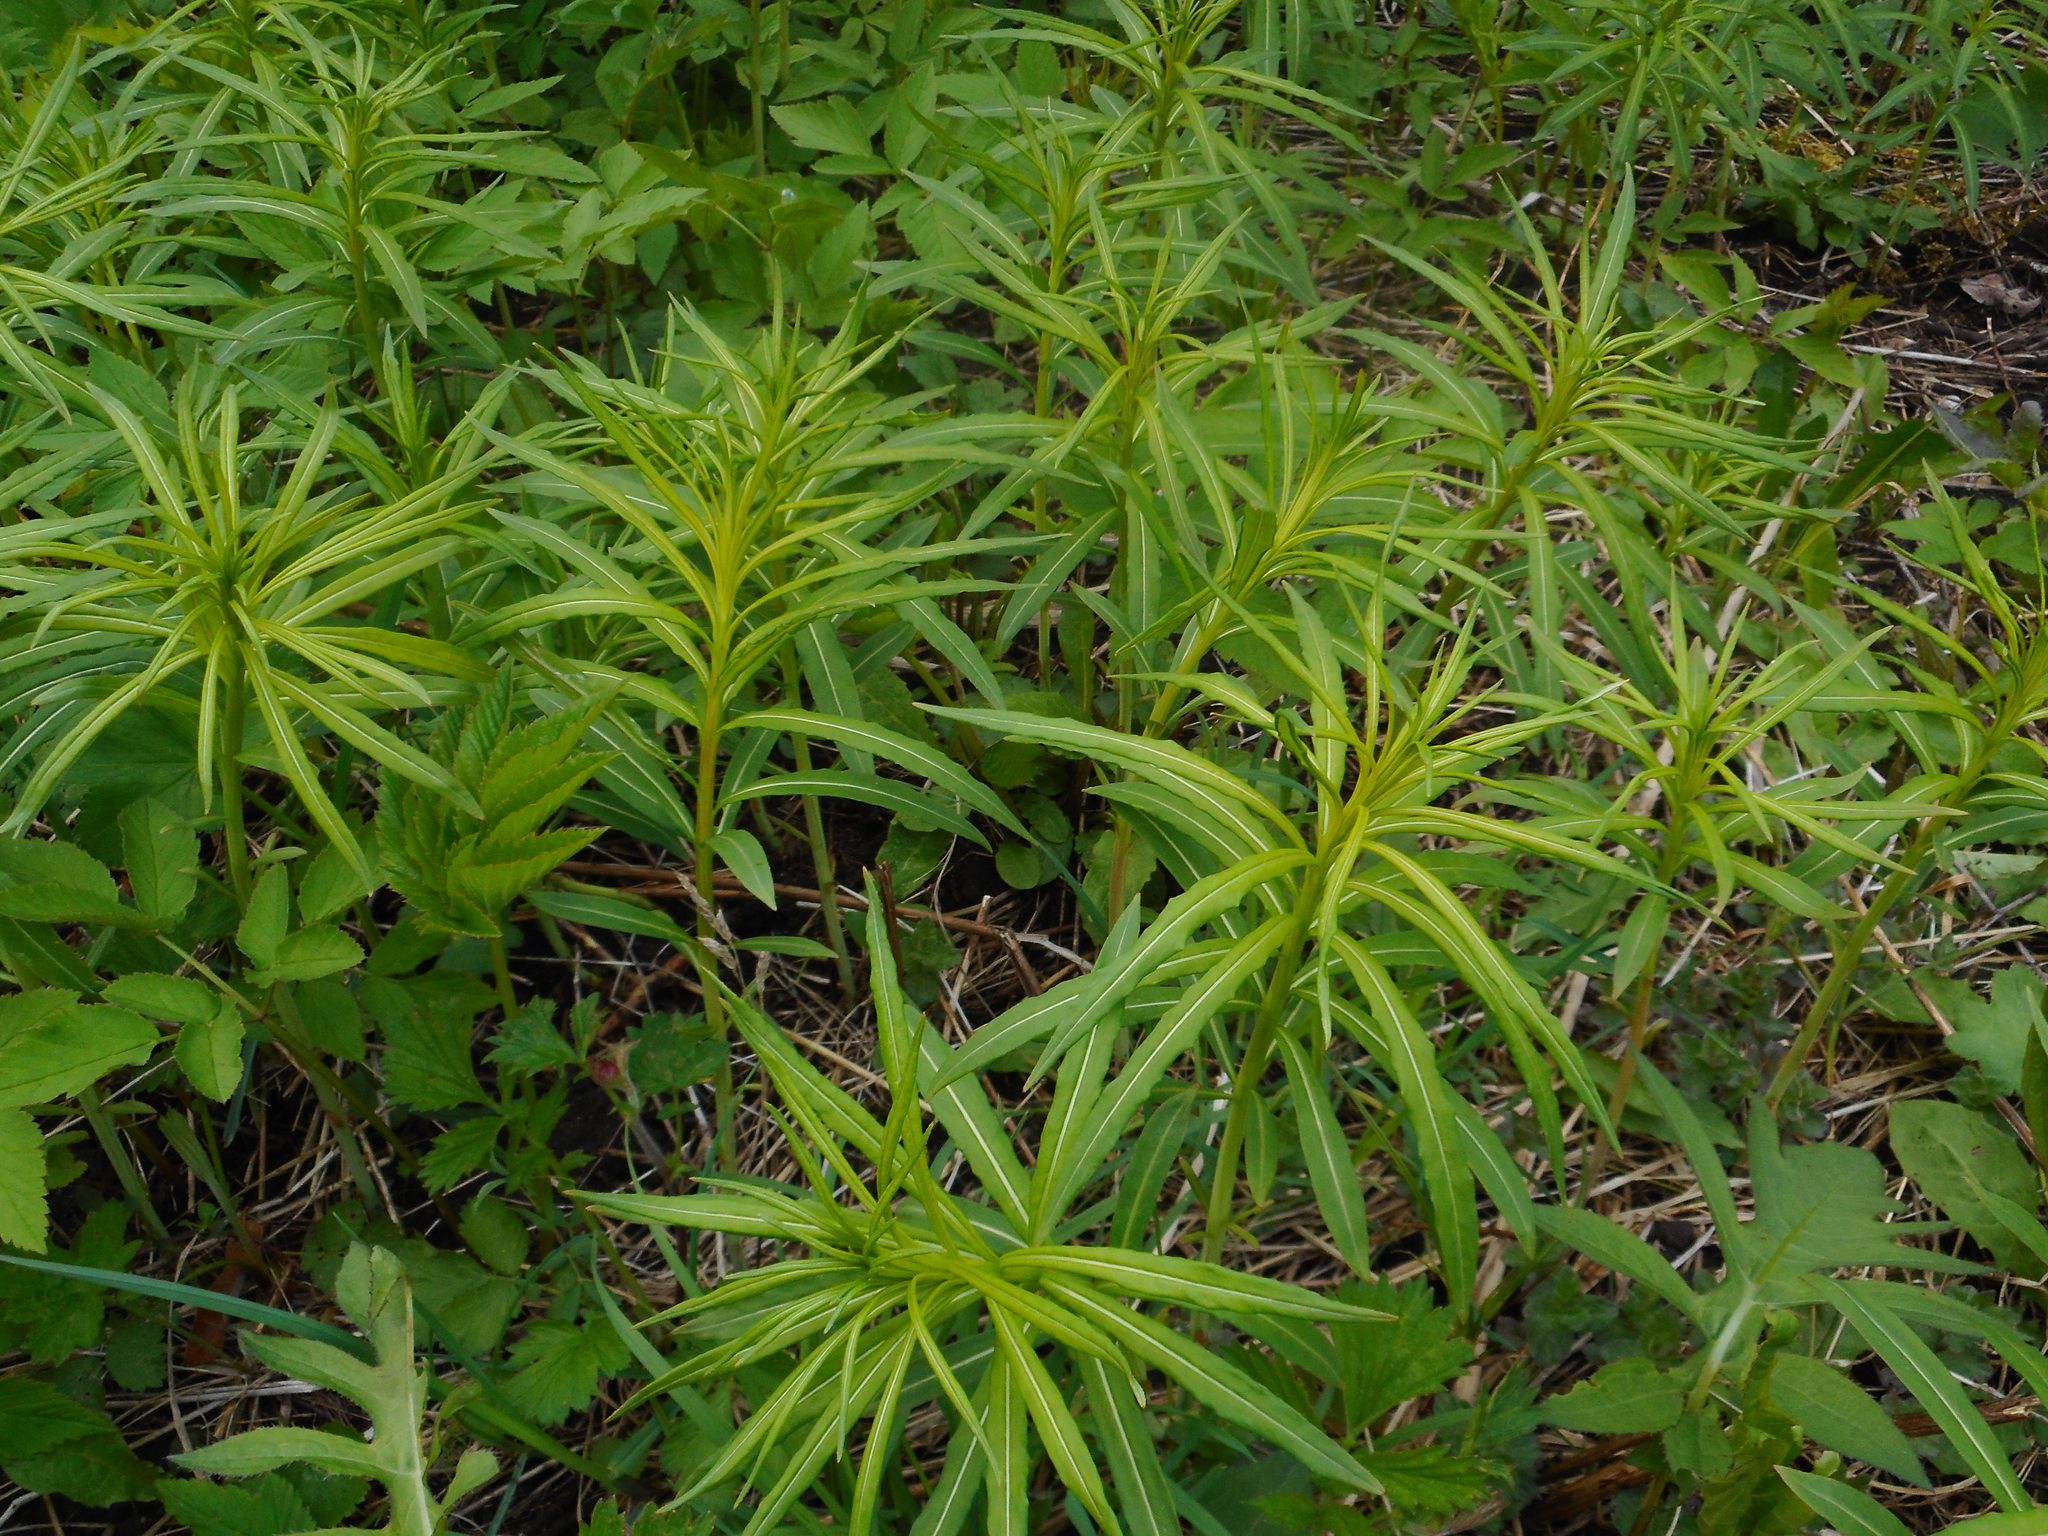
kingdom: Plantae
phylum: Tracheophyta
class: Magnoliopsida
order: Myrtales
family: Onagraceae
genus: Chamaenerion
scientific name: Chamaenerion angustifolium
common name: Fireweed
